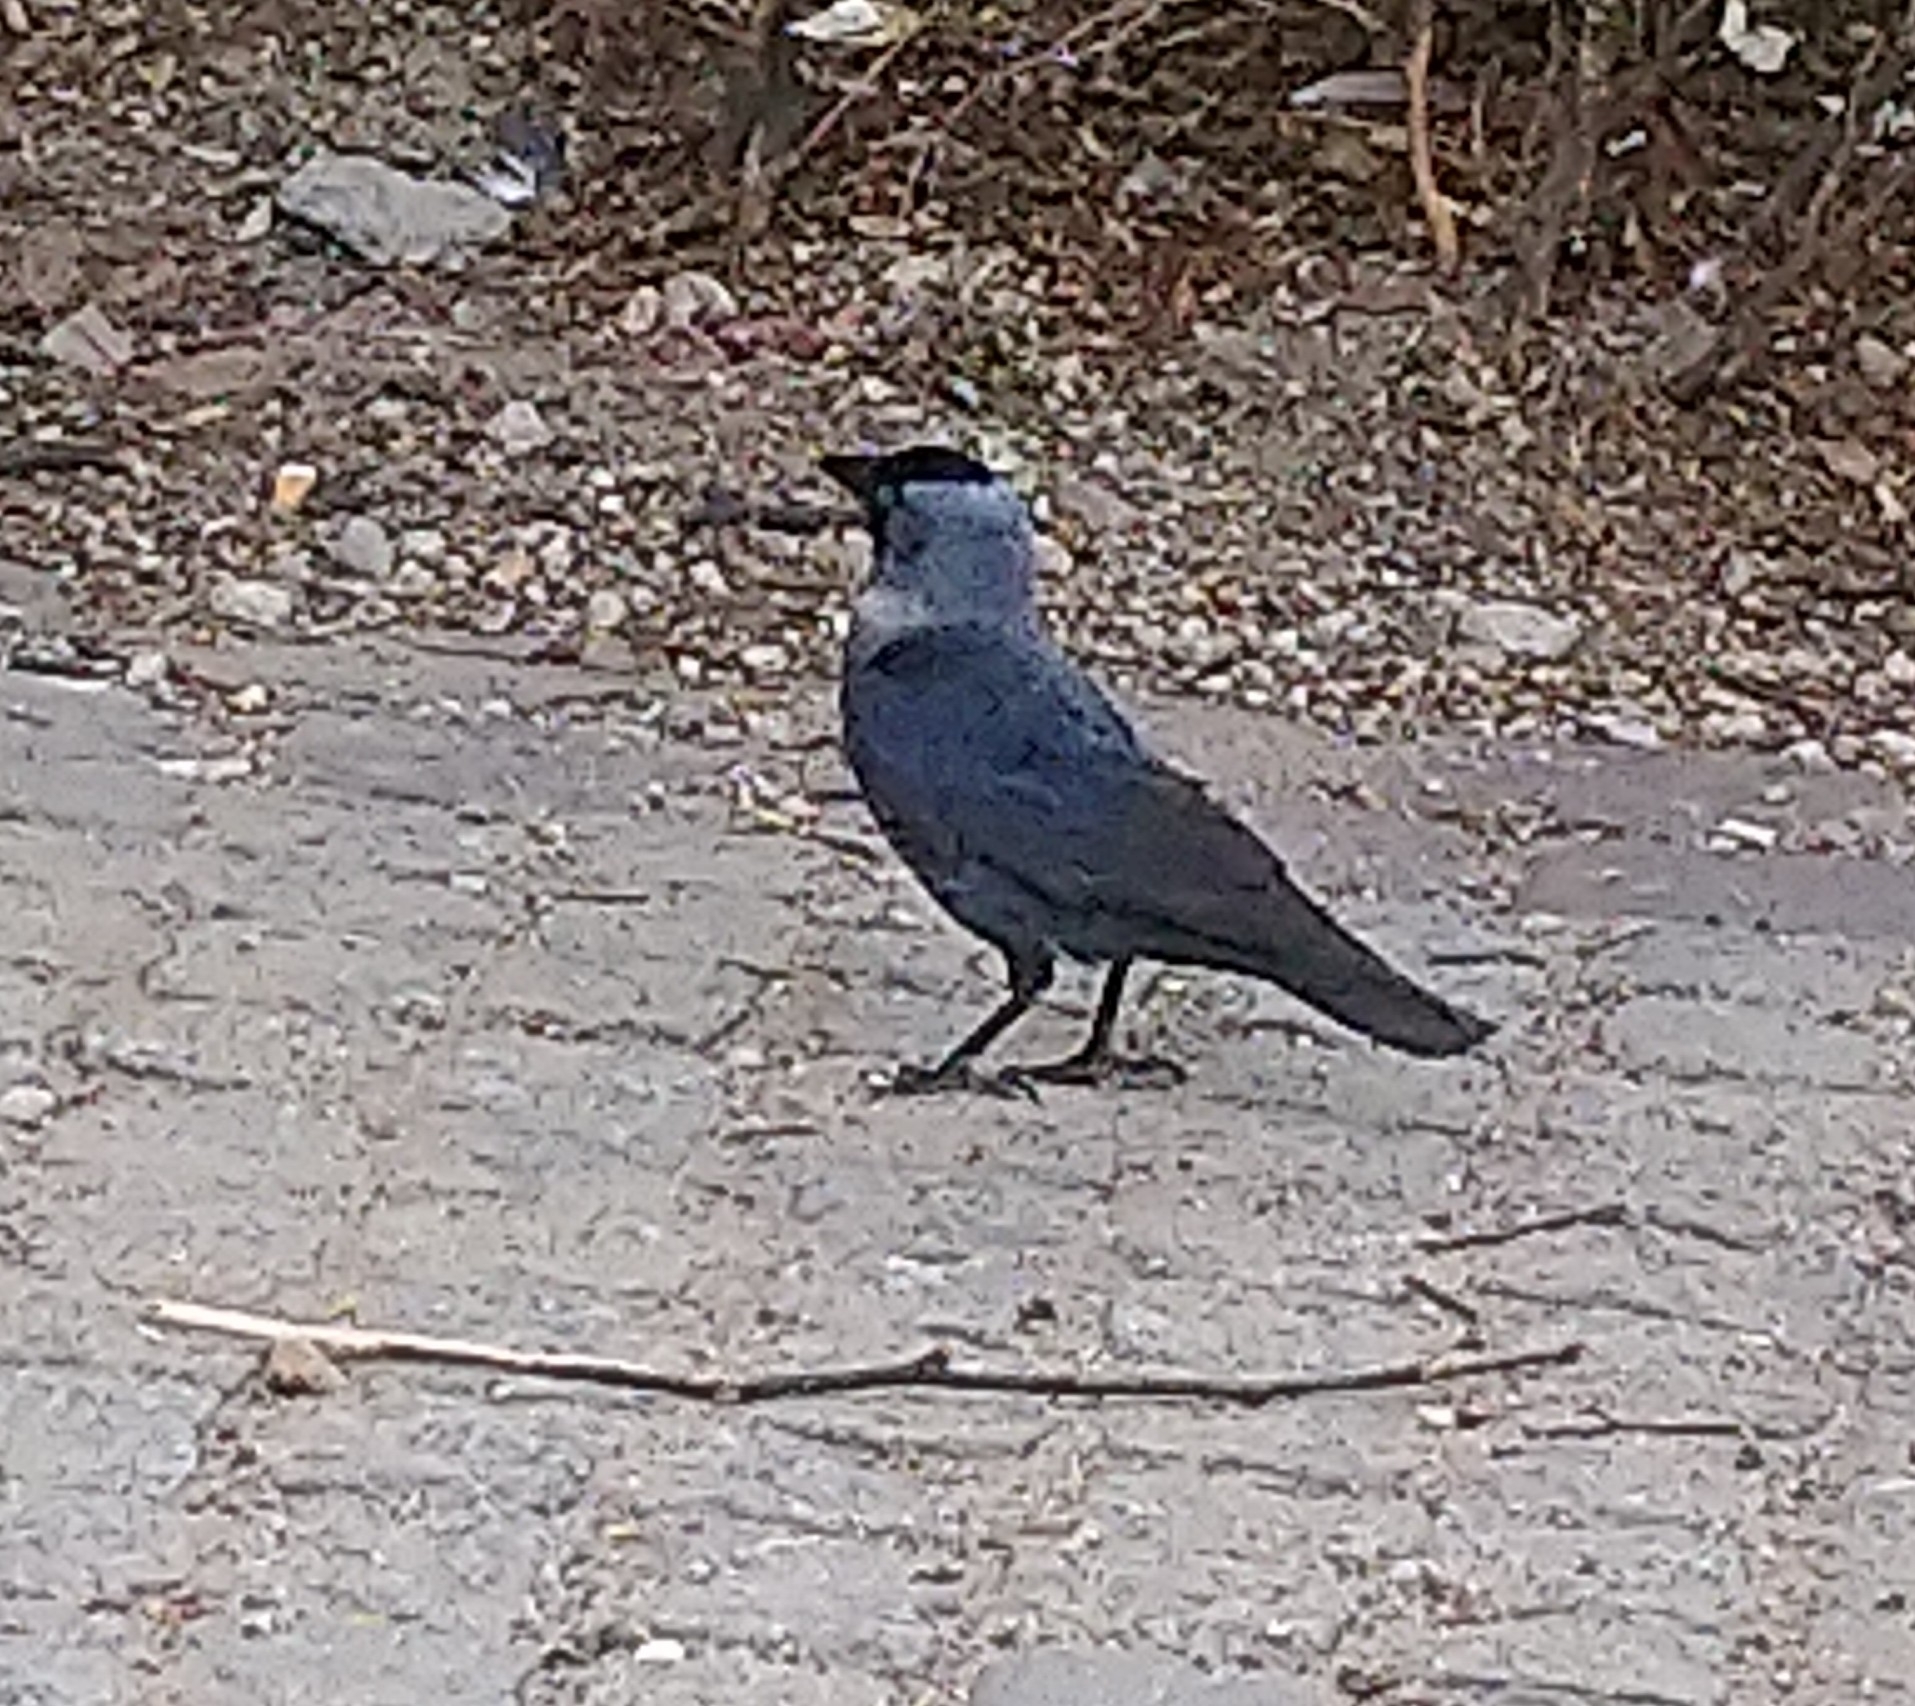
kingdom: Animalia
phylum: Chordata
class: Aves
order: Passeriformes
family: Corvidae
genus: Coloeus
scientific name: Coloeus monedula
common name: Western jackdaw
